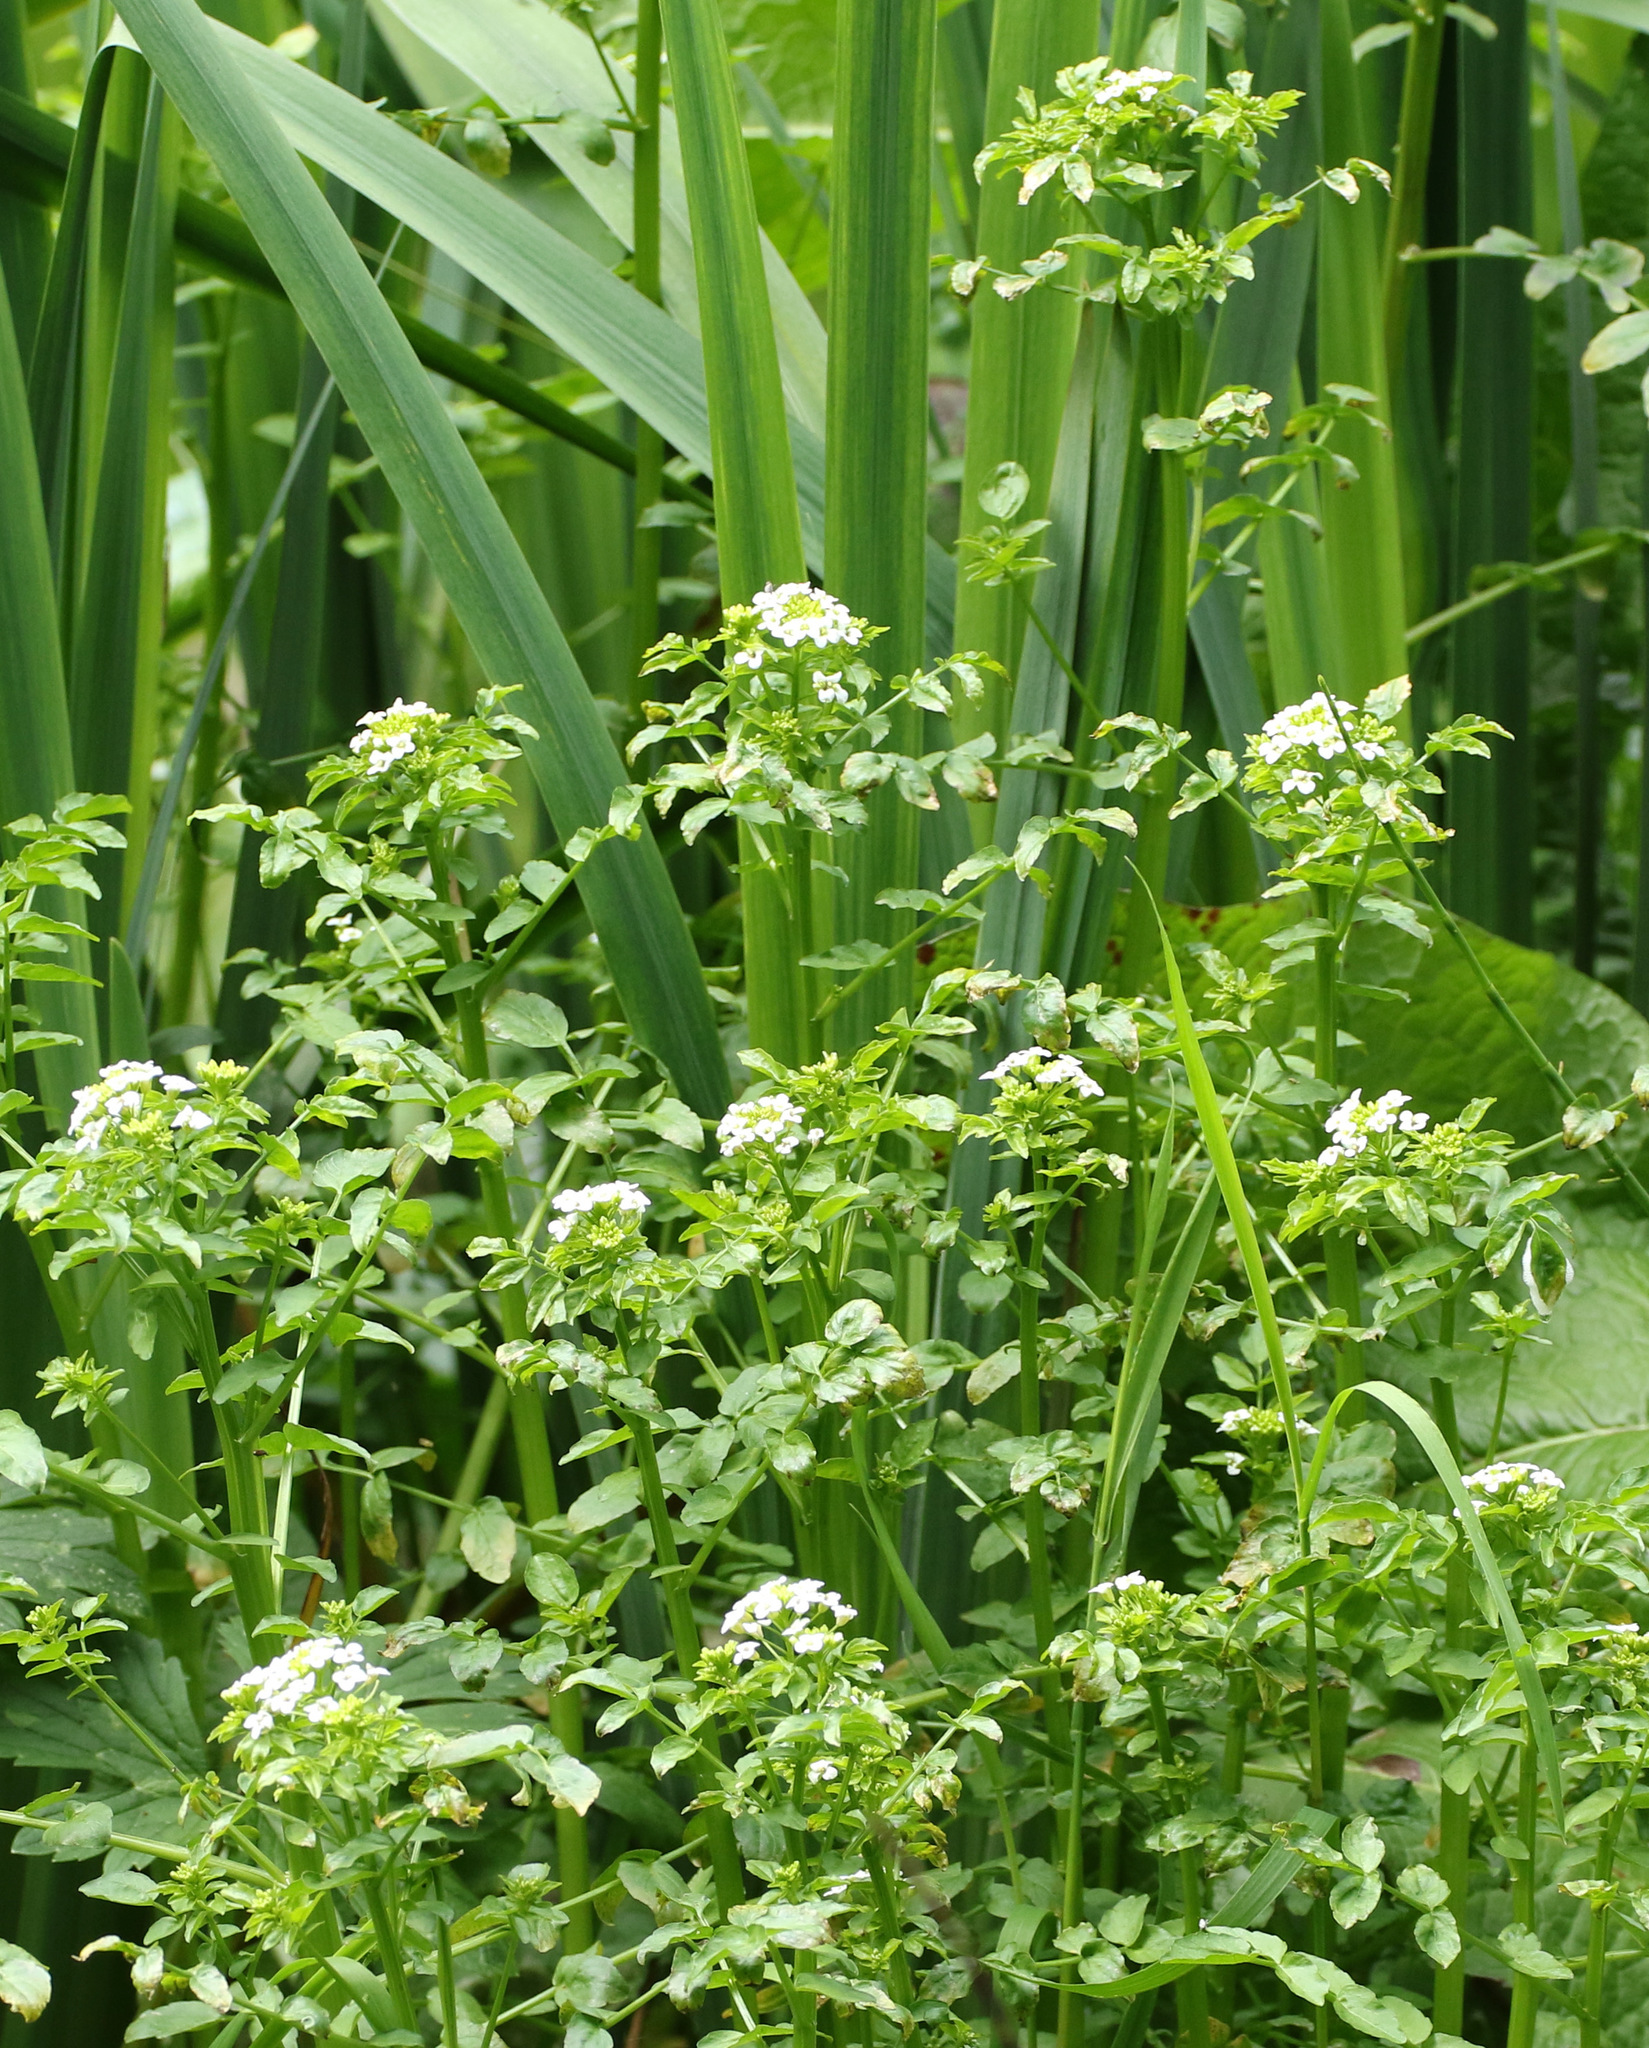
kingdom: Plantae
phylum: Tracheophyta
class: Magnoliopsida
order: Brassicales
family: Brassicaceae
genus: Cardamine
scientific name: Cardamine amara
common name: Large bitter-cress
